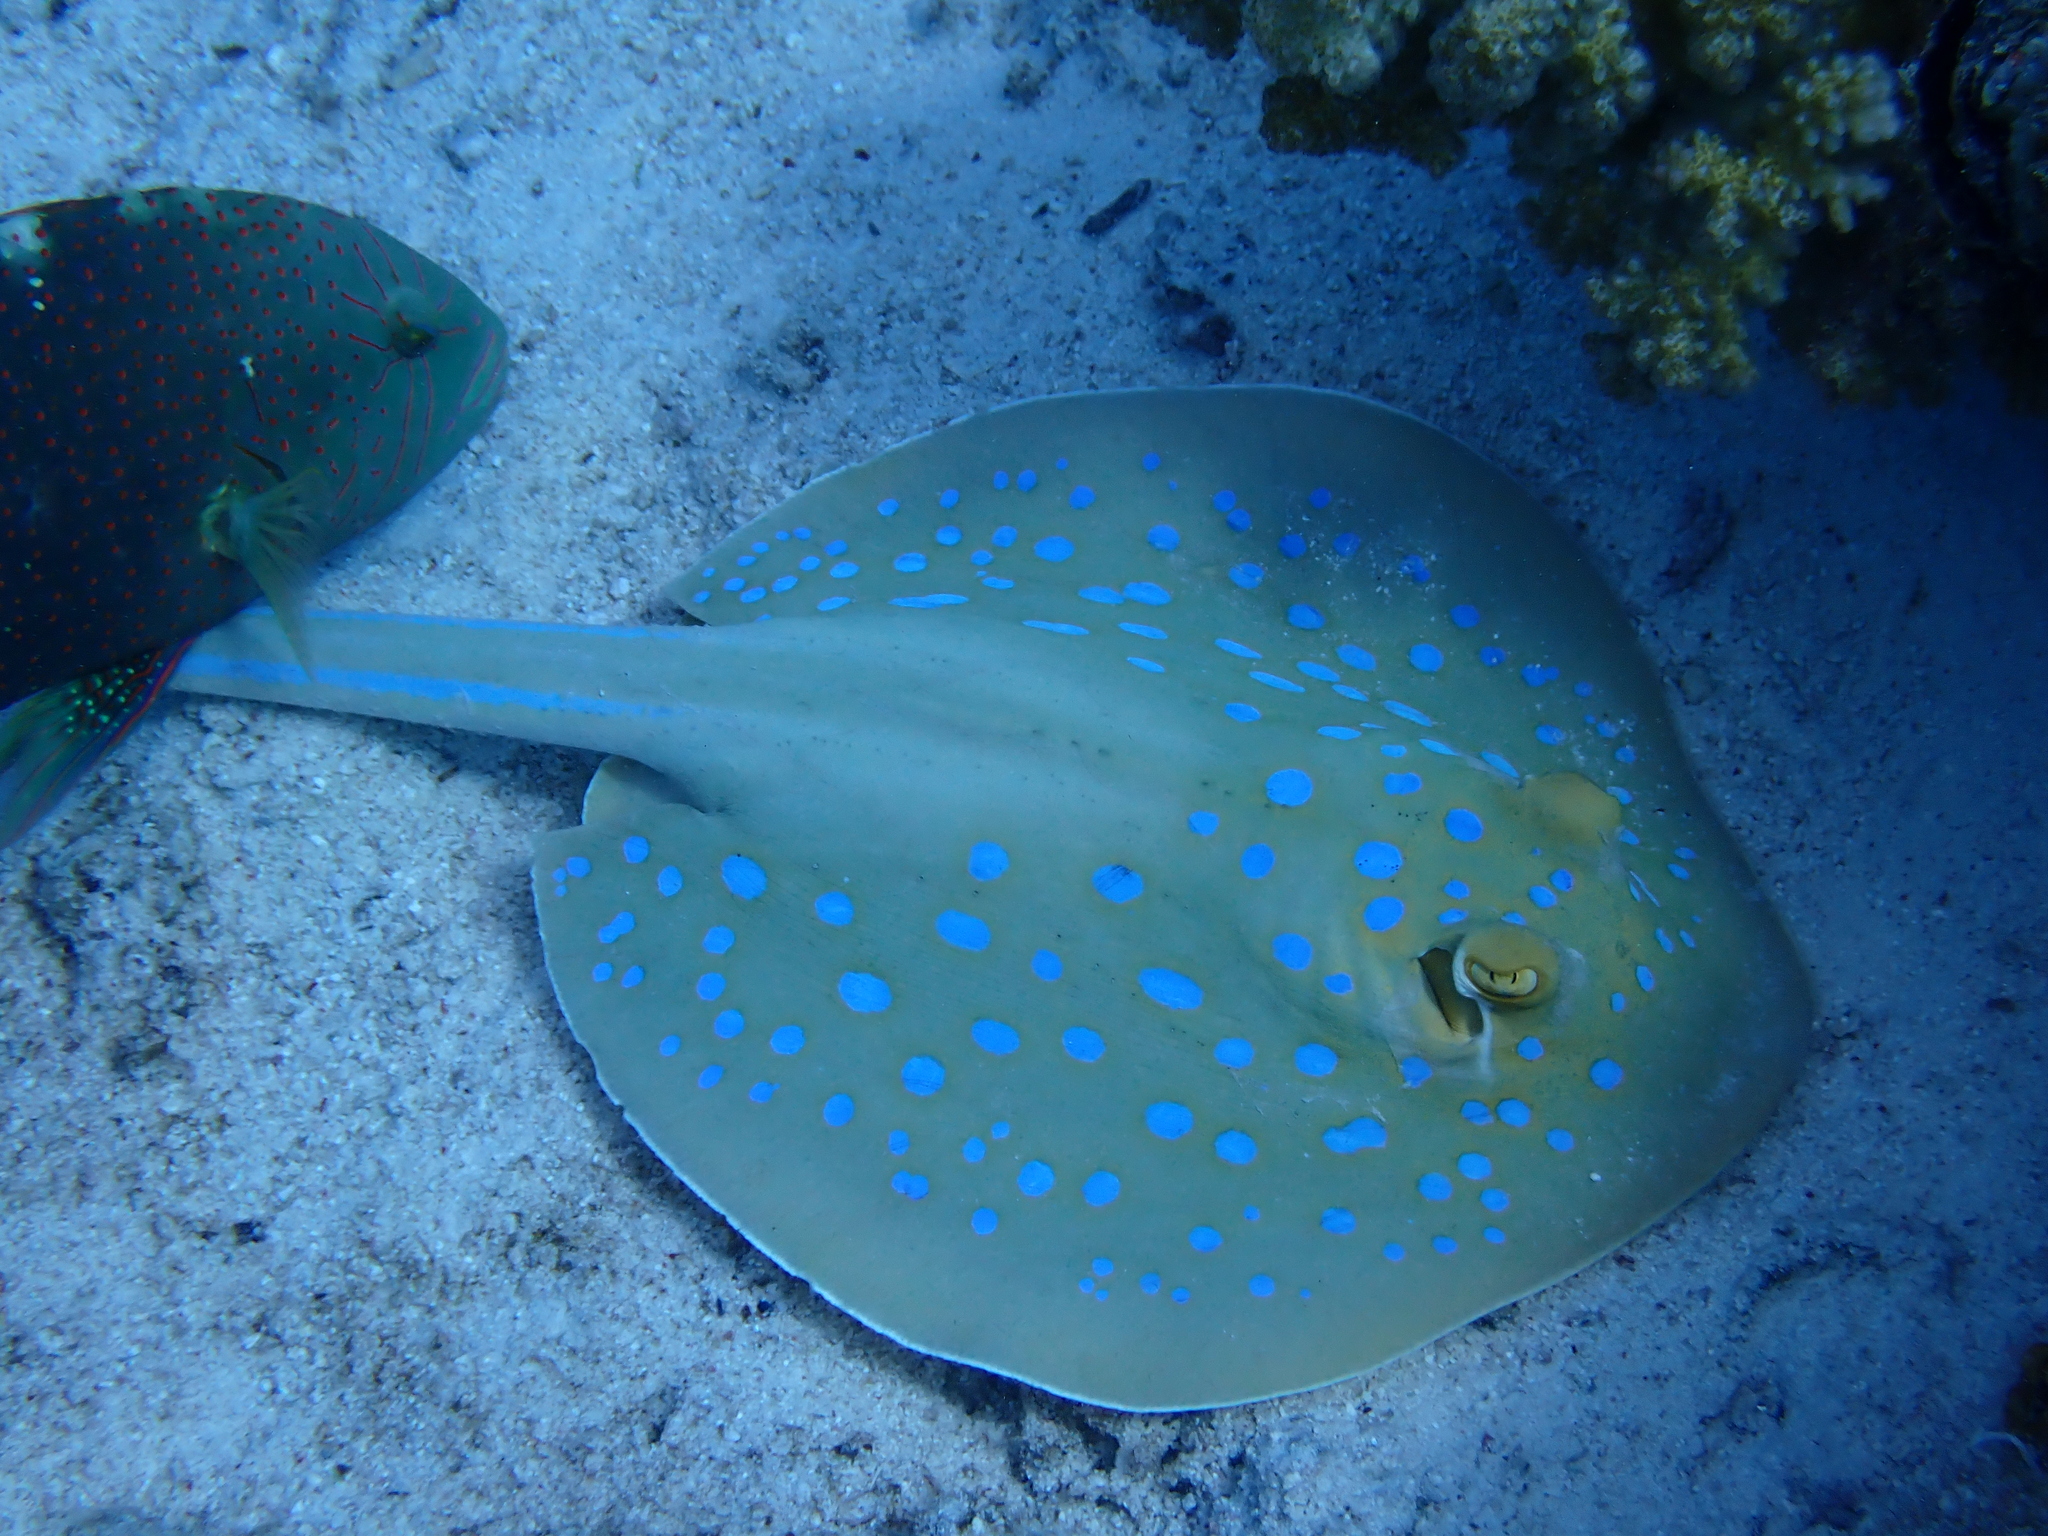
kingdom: Animalia
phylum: Chordata
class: Elasmobranchii
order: Myliobatiformes
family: Dasyatidae
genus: Taeniura
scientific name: Taeniura lymma
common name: Bluespotted ribbontail ray
